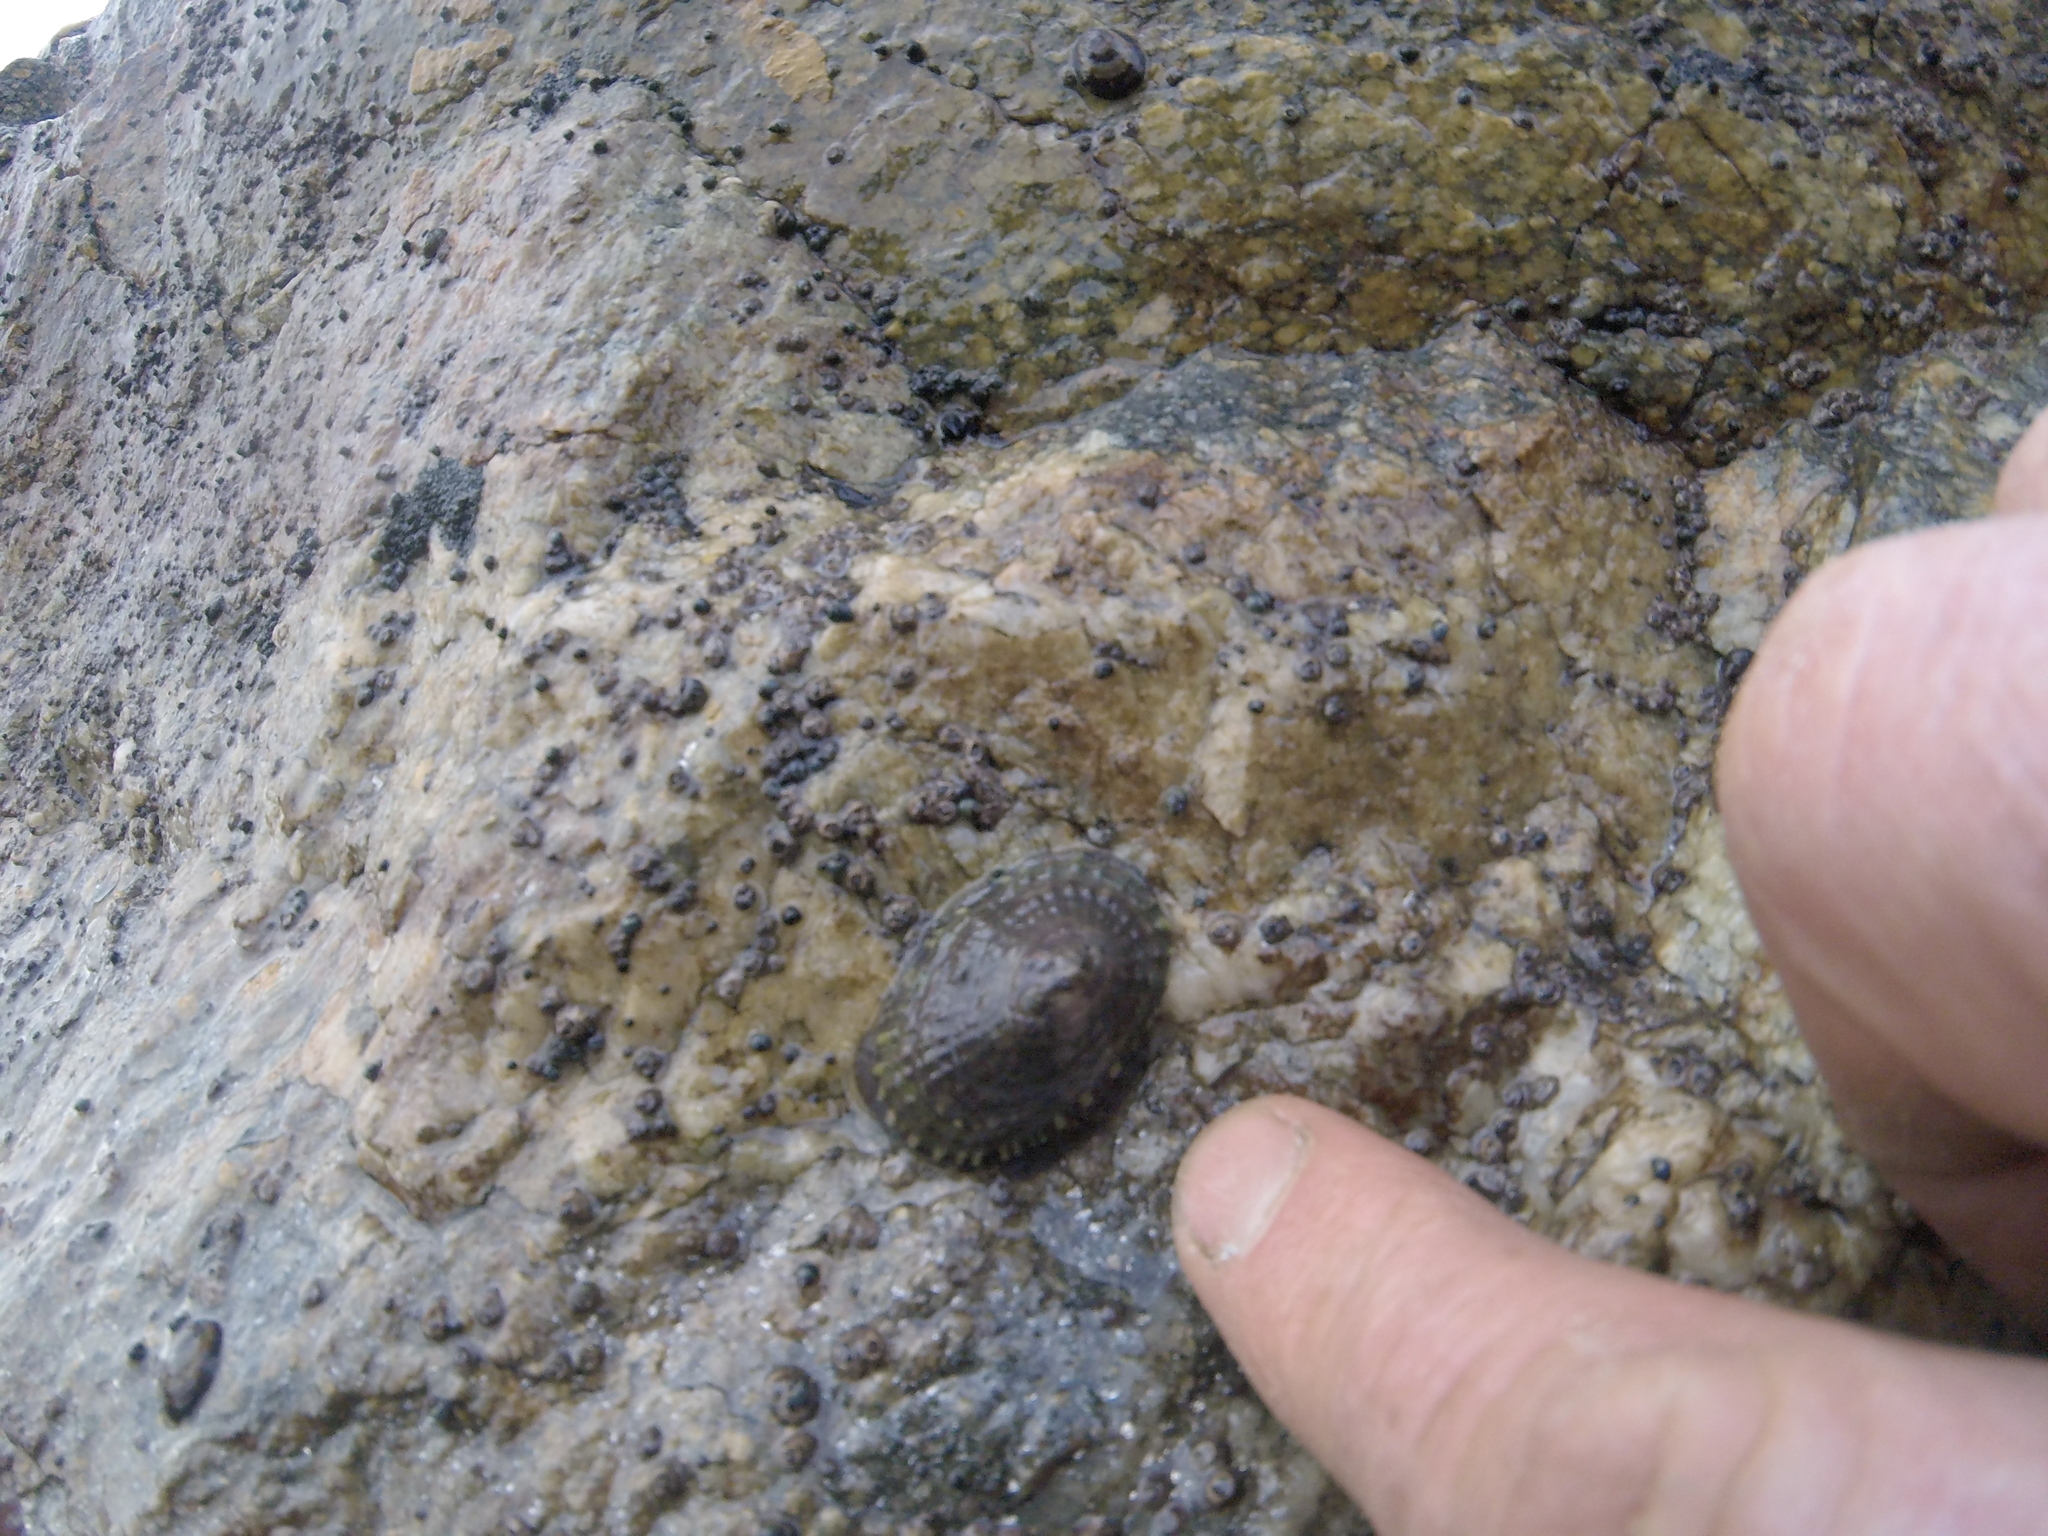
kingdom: Animalia
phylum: Mollusca
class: Gastropoda
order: Siphonariida
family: Siphonariidae
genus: Benhamina
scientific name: Benhamina obliquata
